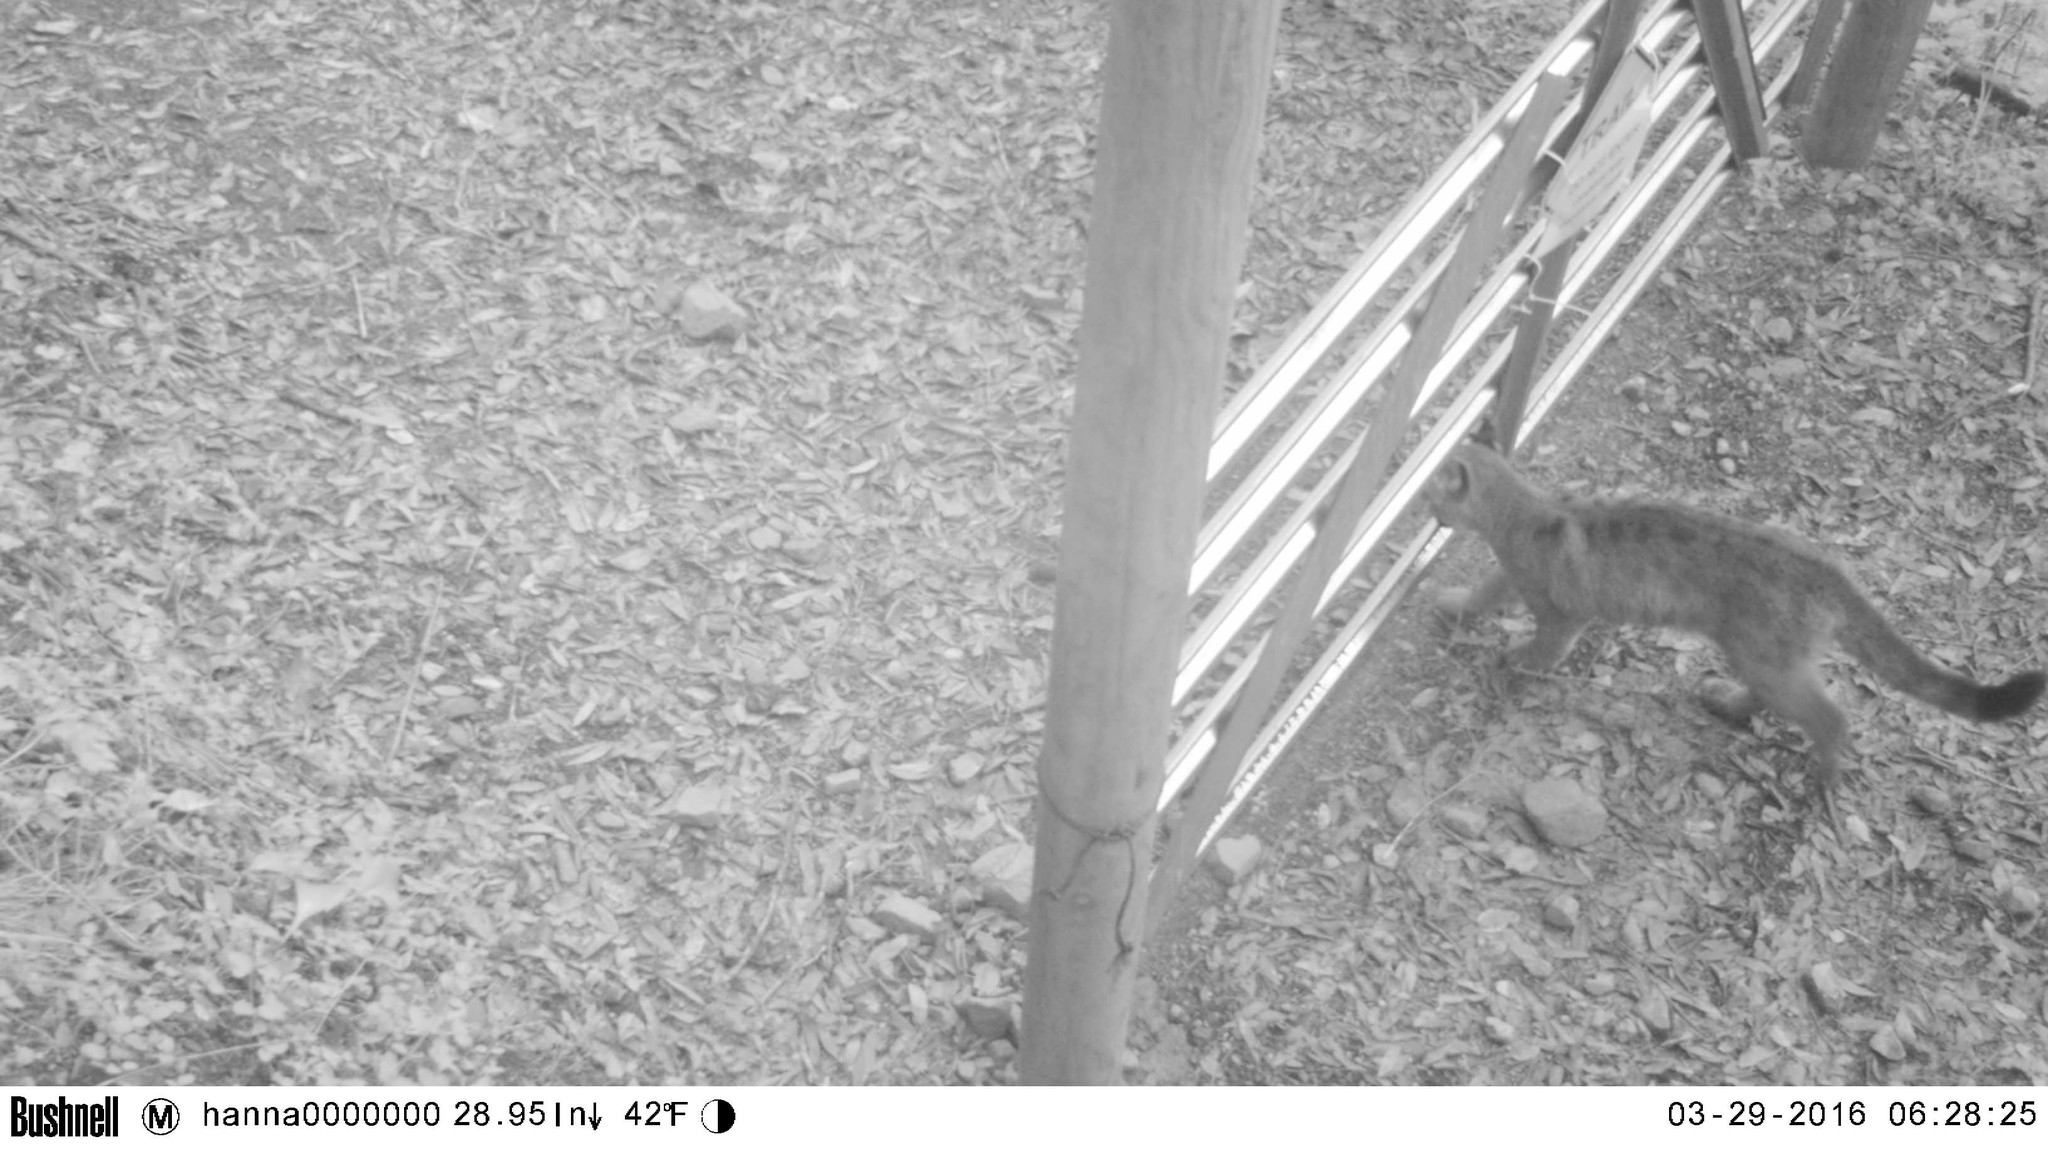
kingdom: Animalia
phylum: Chordata
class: Mammalia
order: Carnivora
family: Felidae
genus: Puma
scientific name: Puma concolor
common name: Puma
